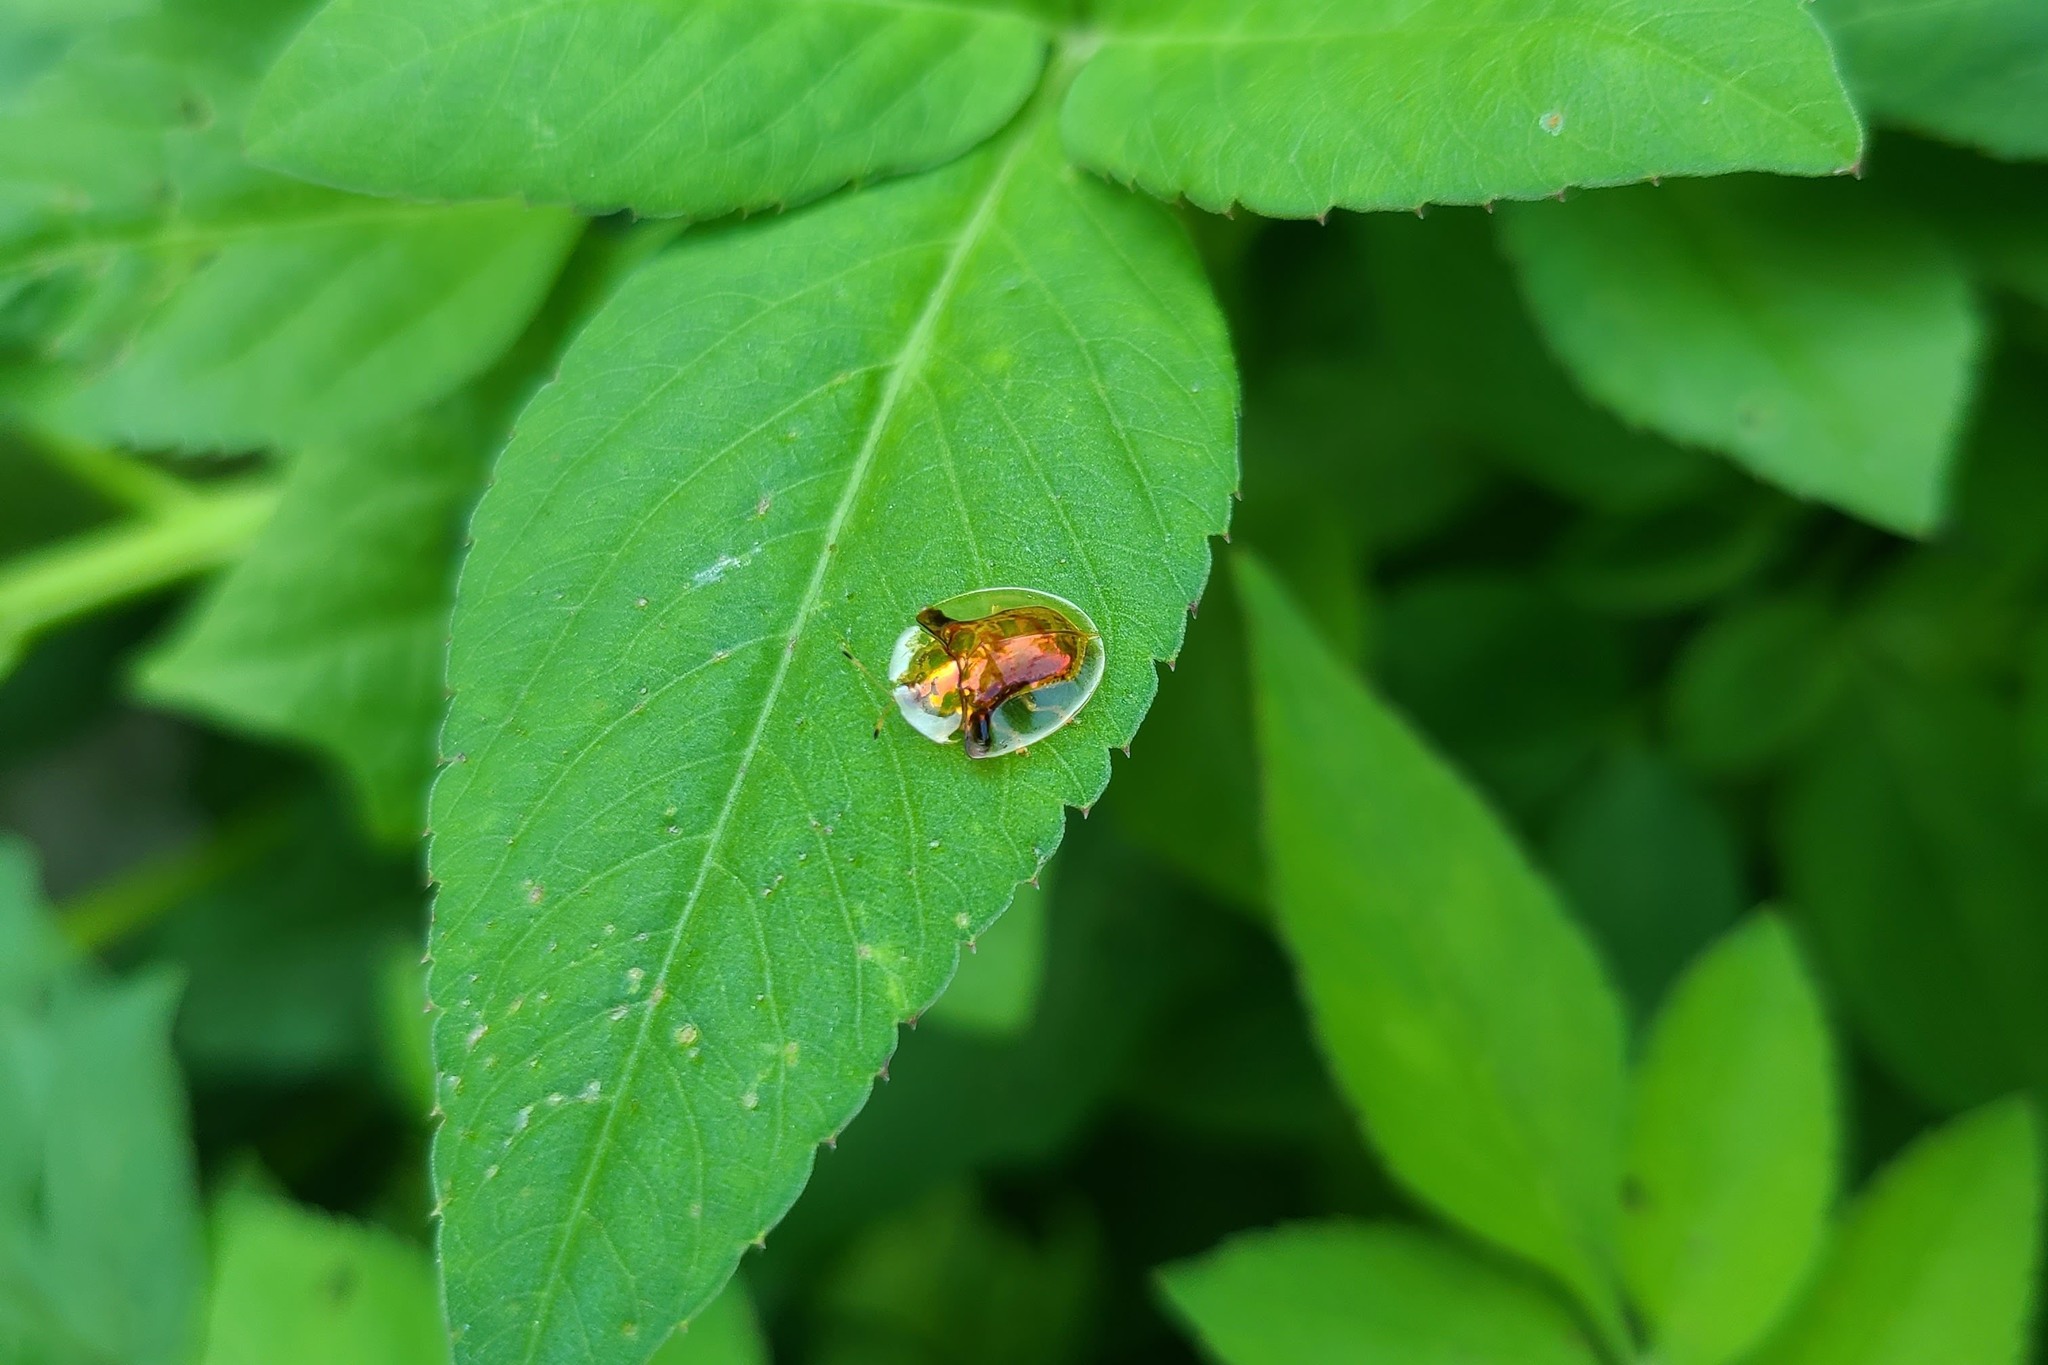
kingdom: Animalia
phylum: Arthropoda
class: Insecta
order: Coleoptera
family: Chrysomelidae
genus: Aspidimorpha
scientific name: Aspidimorpha furcata
